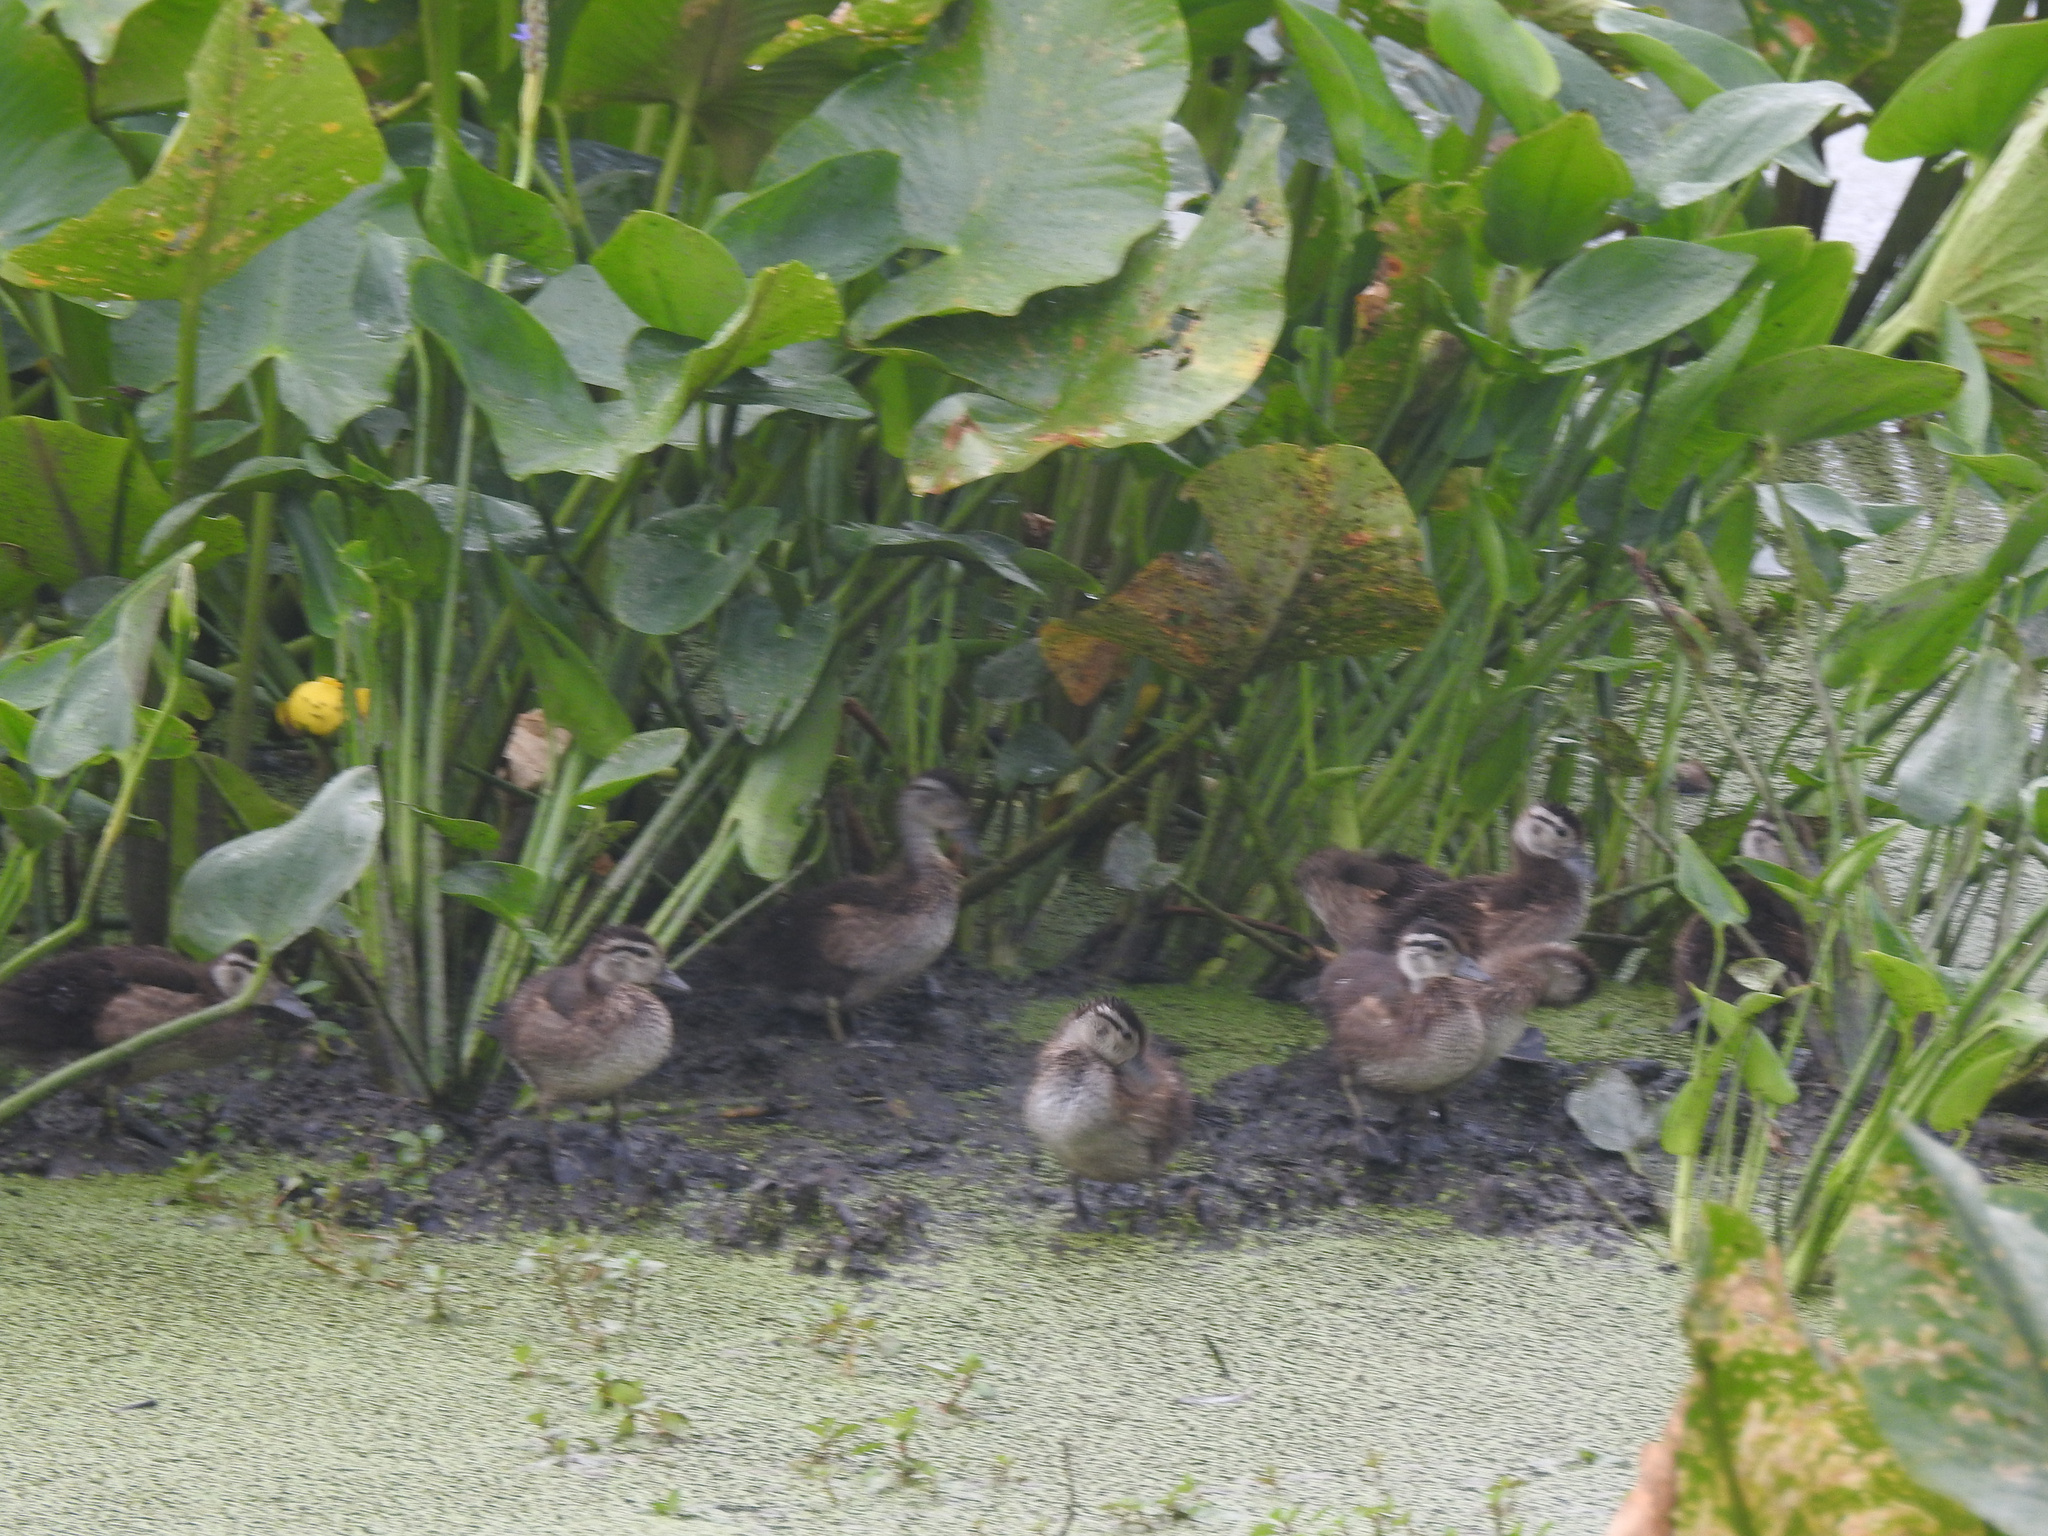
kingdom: Animalia
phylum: Chordata
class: Aves
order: Anseriformes
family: Anatidae
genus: Aix
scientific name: Aix sponsa
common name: Wood duck
